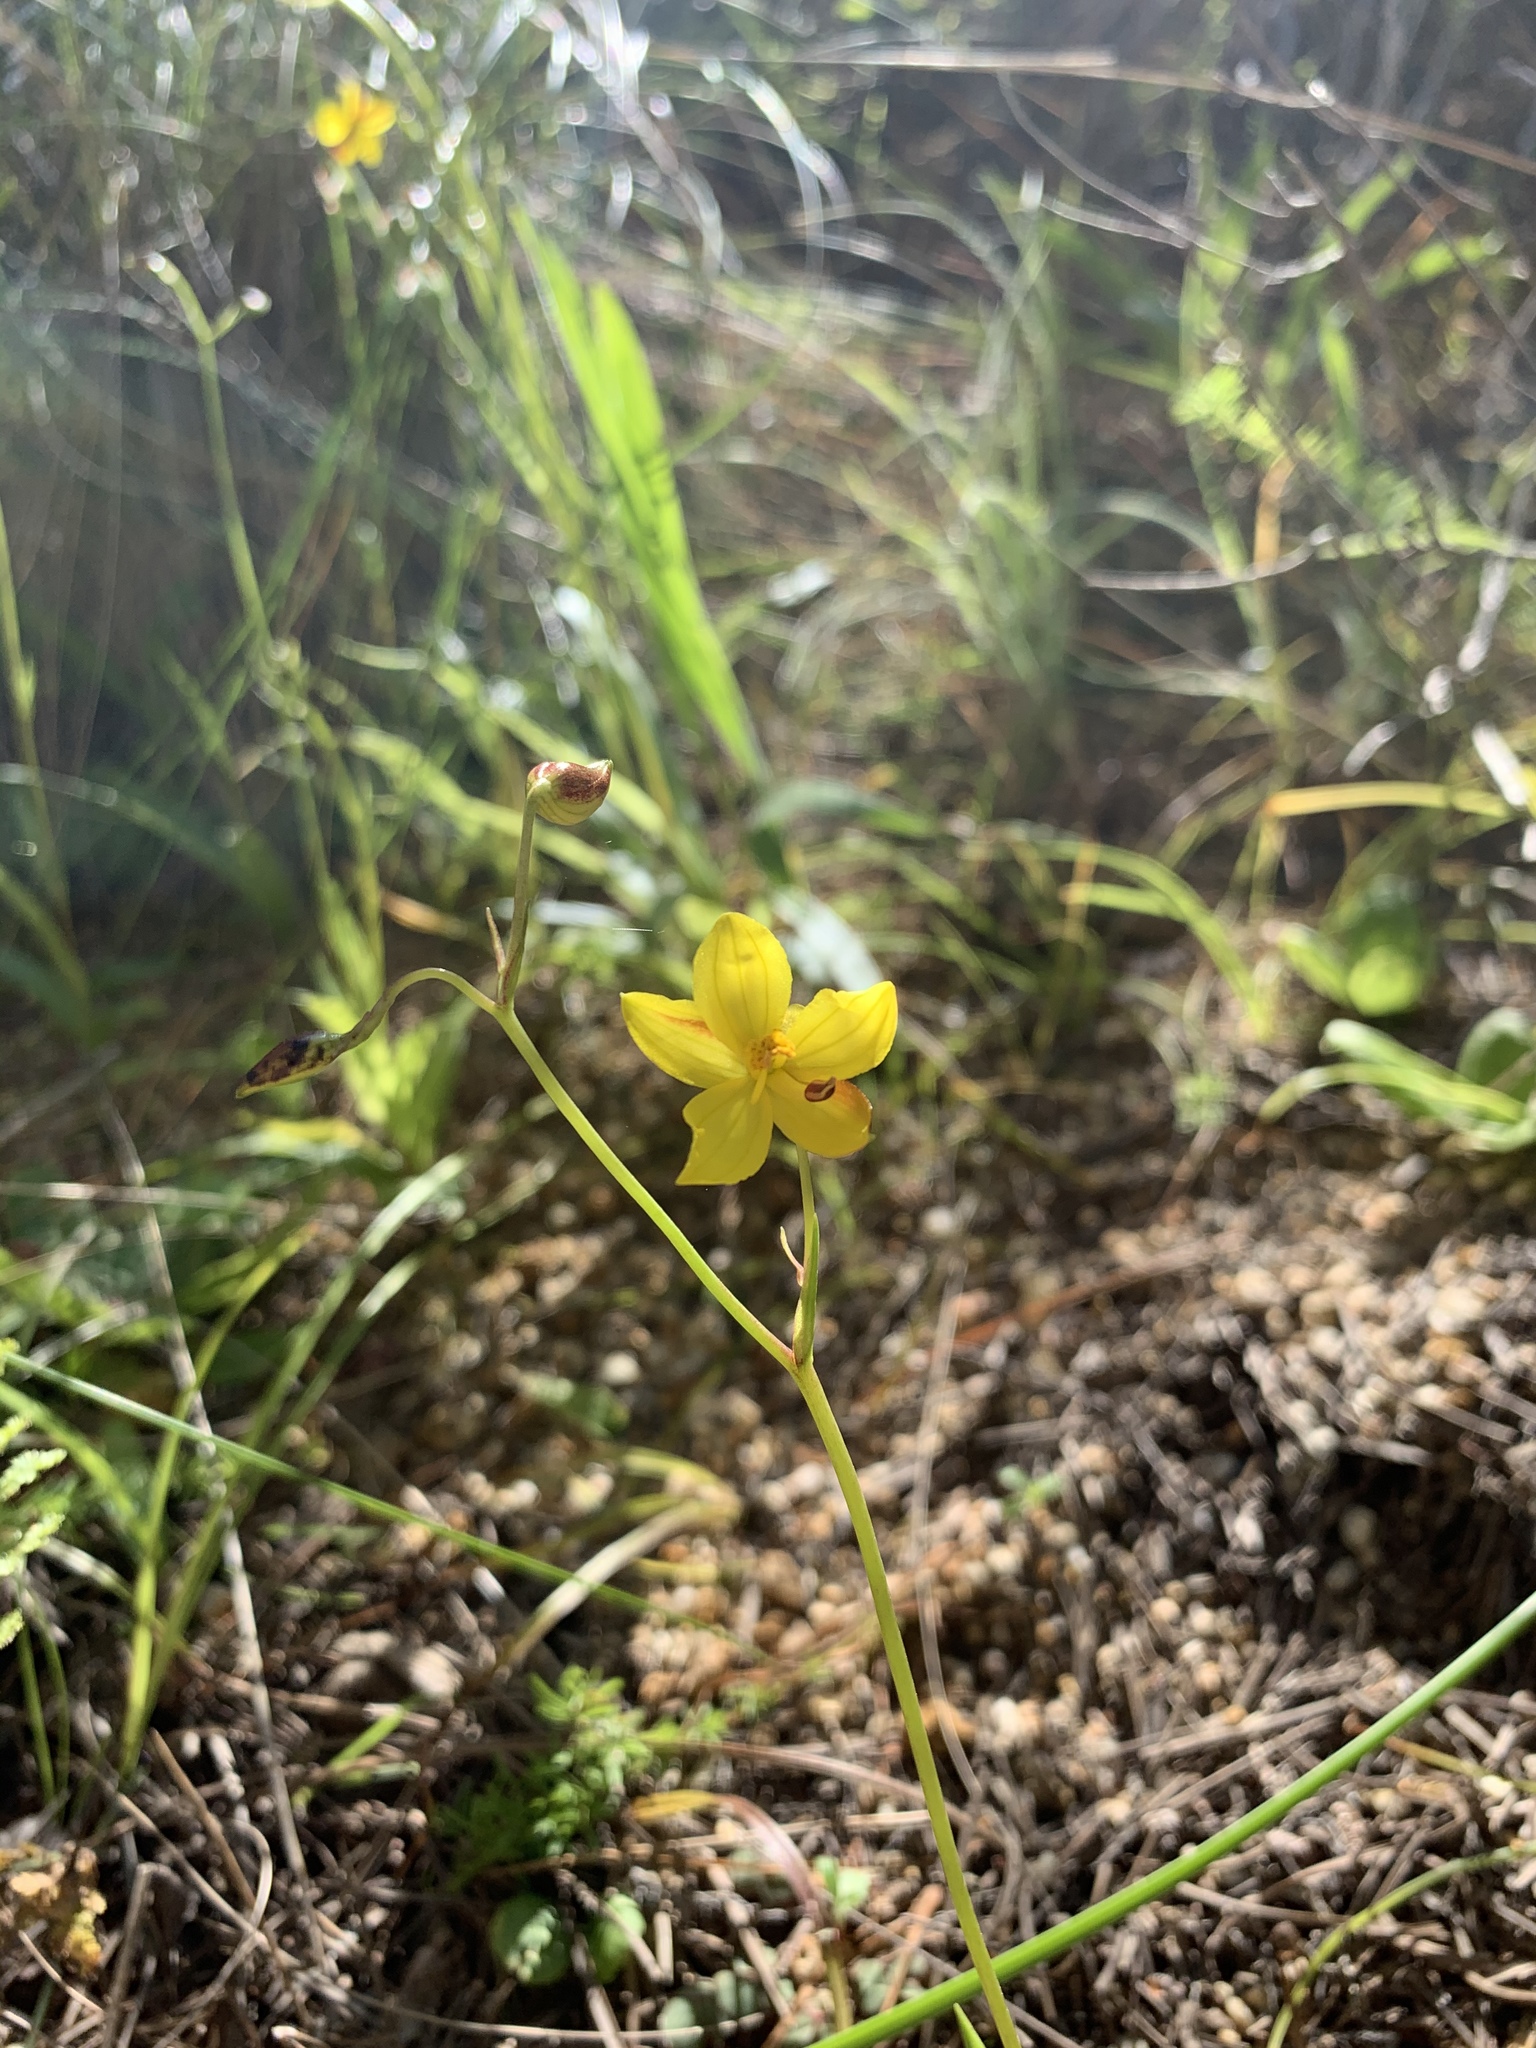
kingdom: Plantae
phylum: Tracheophyta
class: Liliopsida
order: Asparagales
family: Tecophilaeaceae
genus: Cyanella
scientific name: Cyanella lutea
